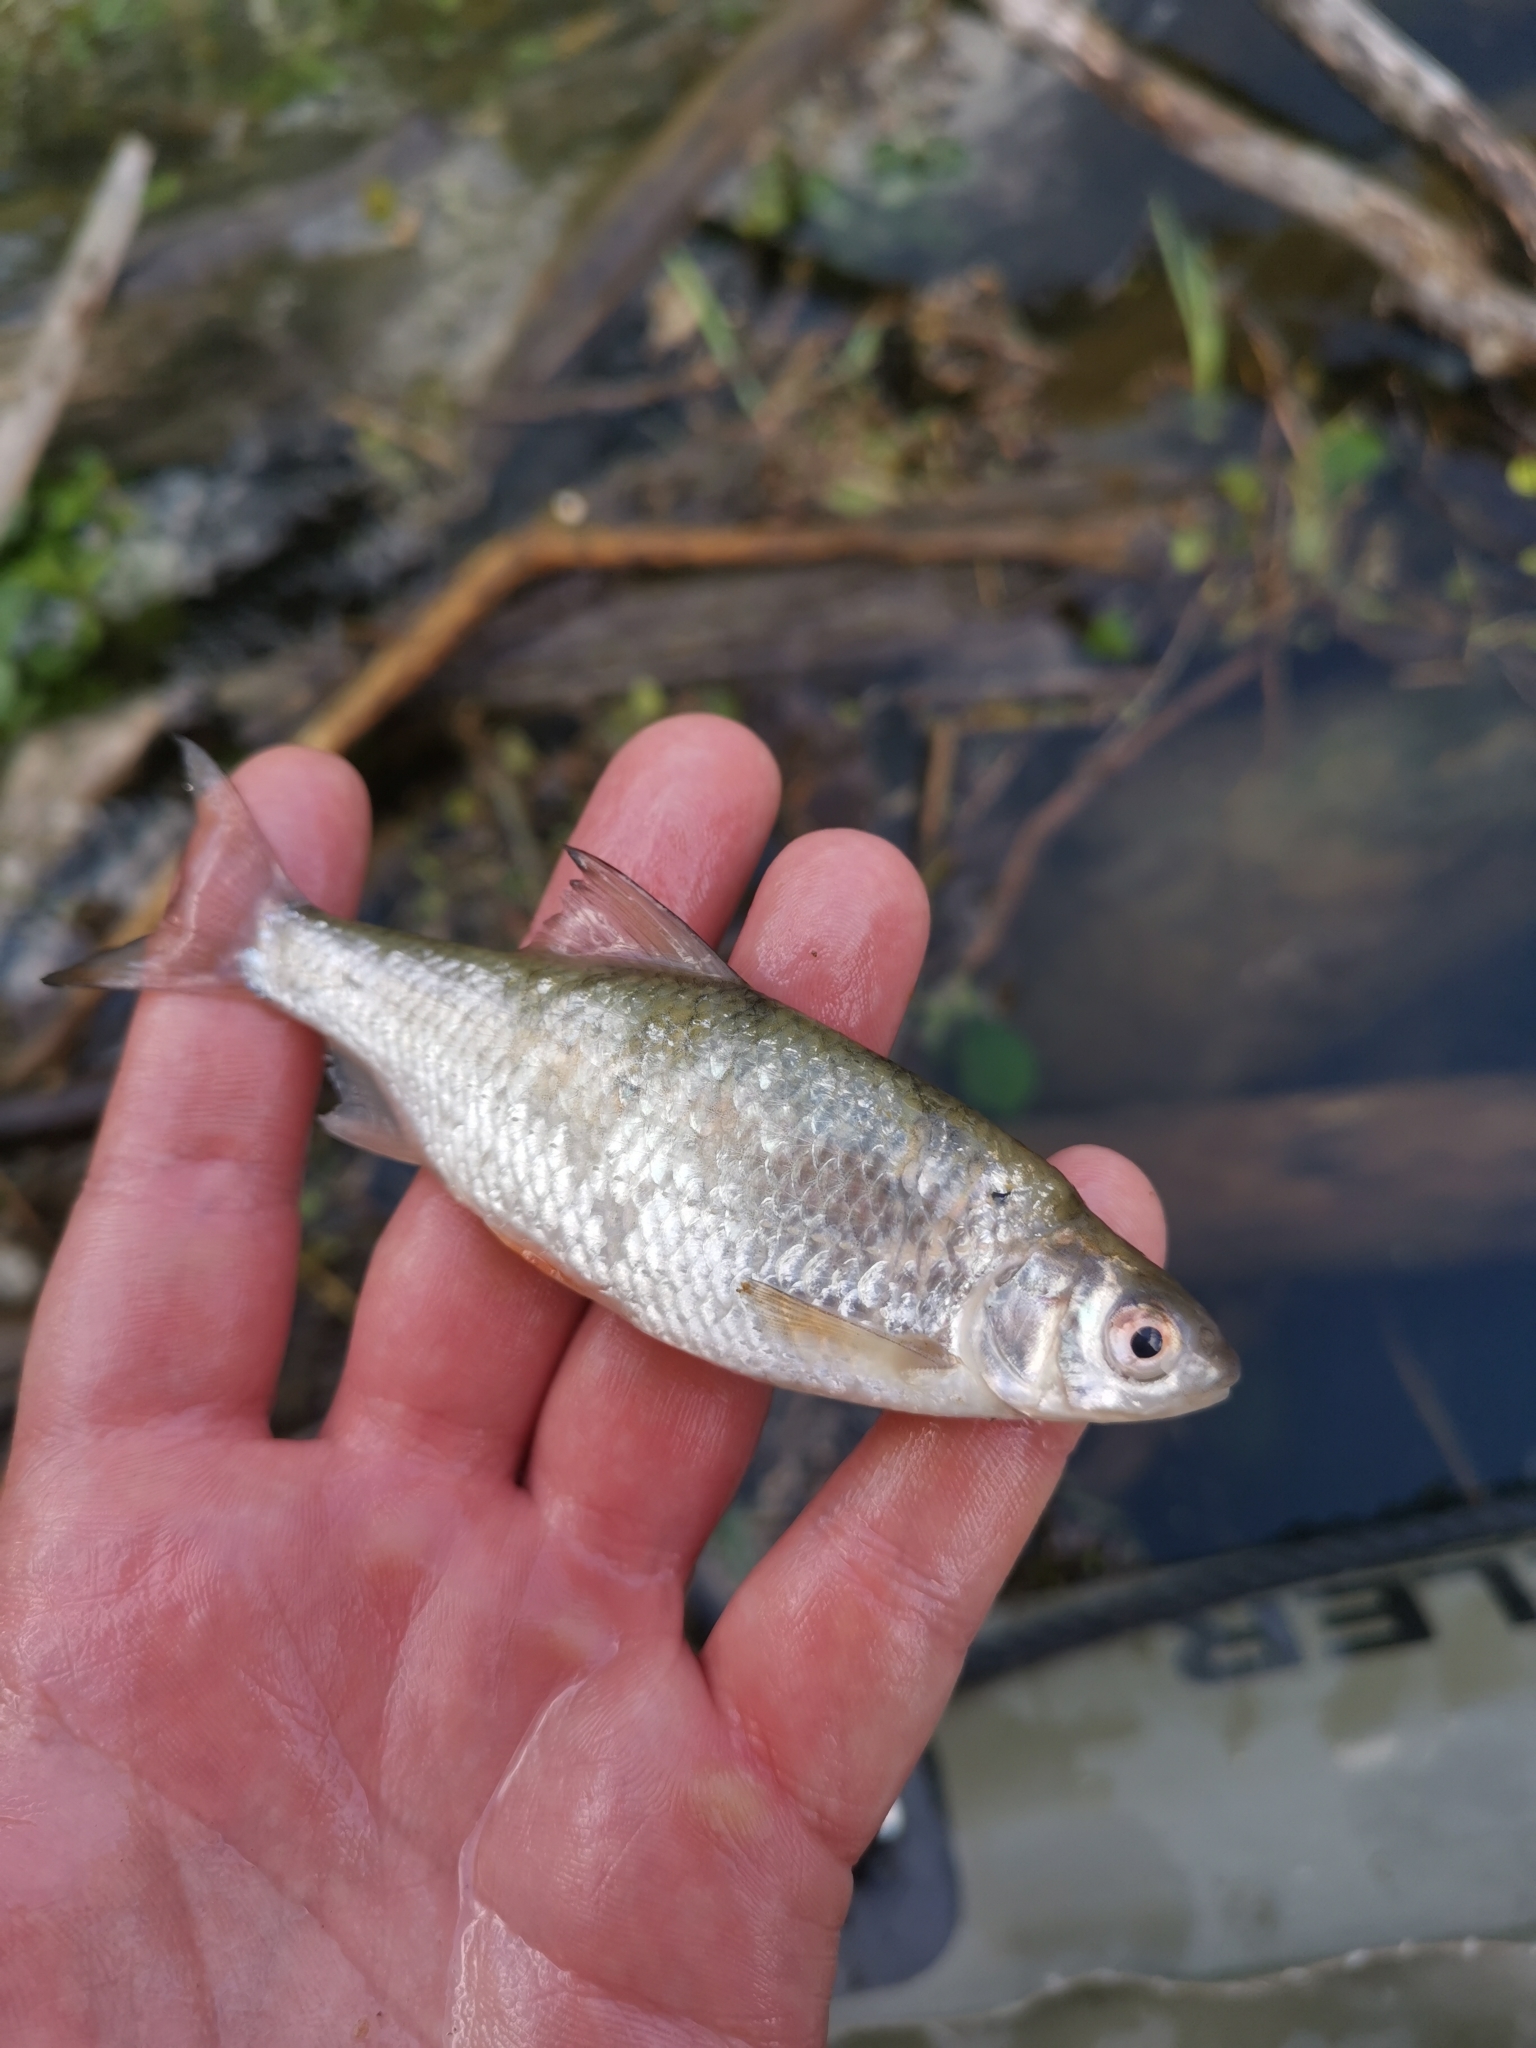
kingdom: Animalia
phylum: Chordata
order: Cypriniformes
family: Cyprinidae
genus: Rutilus
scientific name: Rutilus rutilus
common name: Roach
